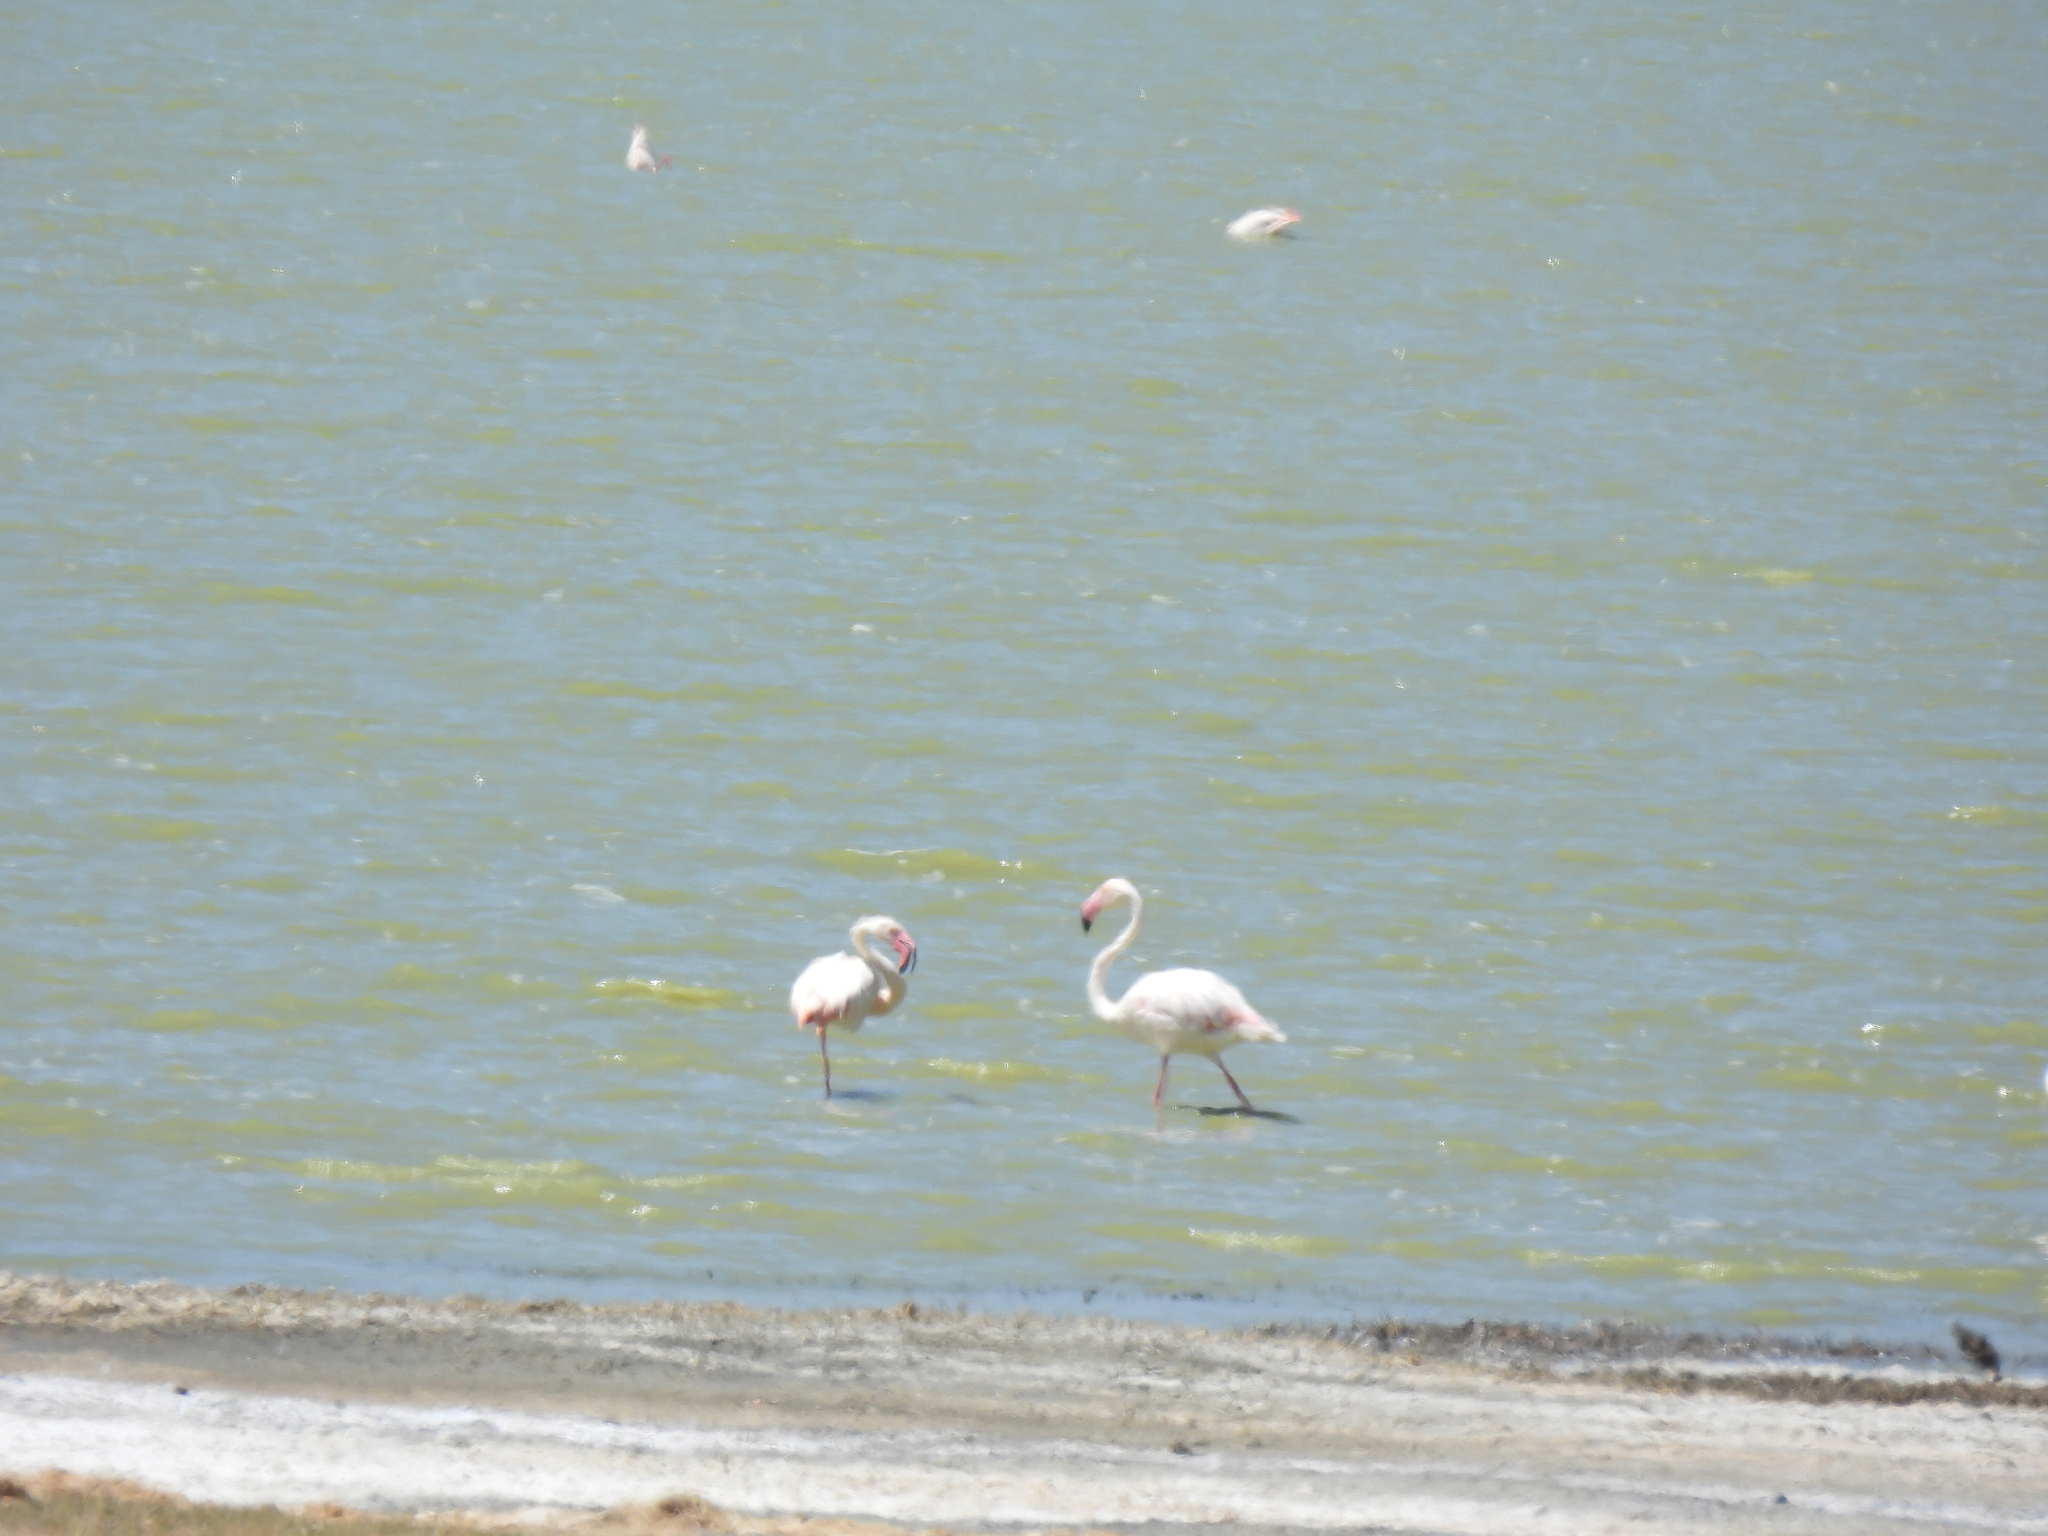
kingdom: Animalia
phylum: Chordata
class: Aves
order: Phoenicopteriformes
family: Phoenicopteridae
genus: Phoenicopterus
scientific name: Phoenicopterus roseus
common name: Greater flamingo
